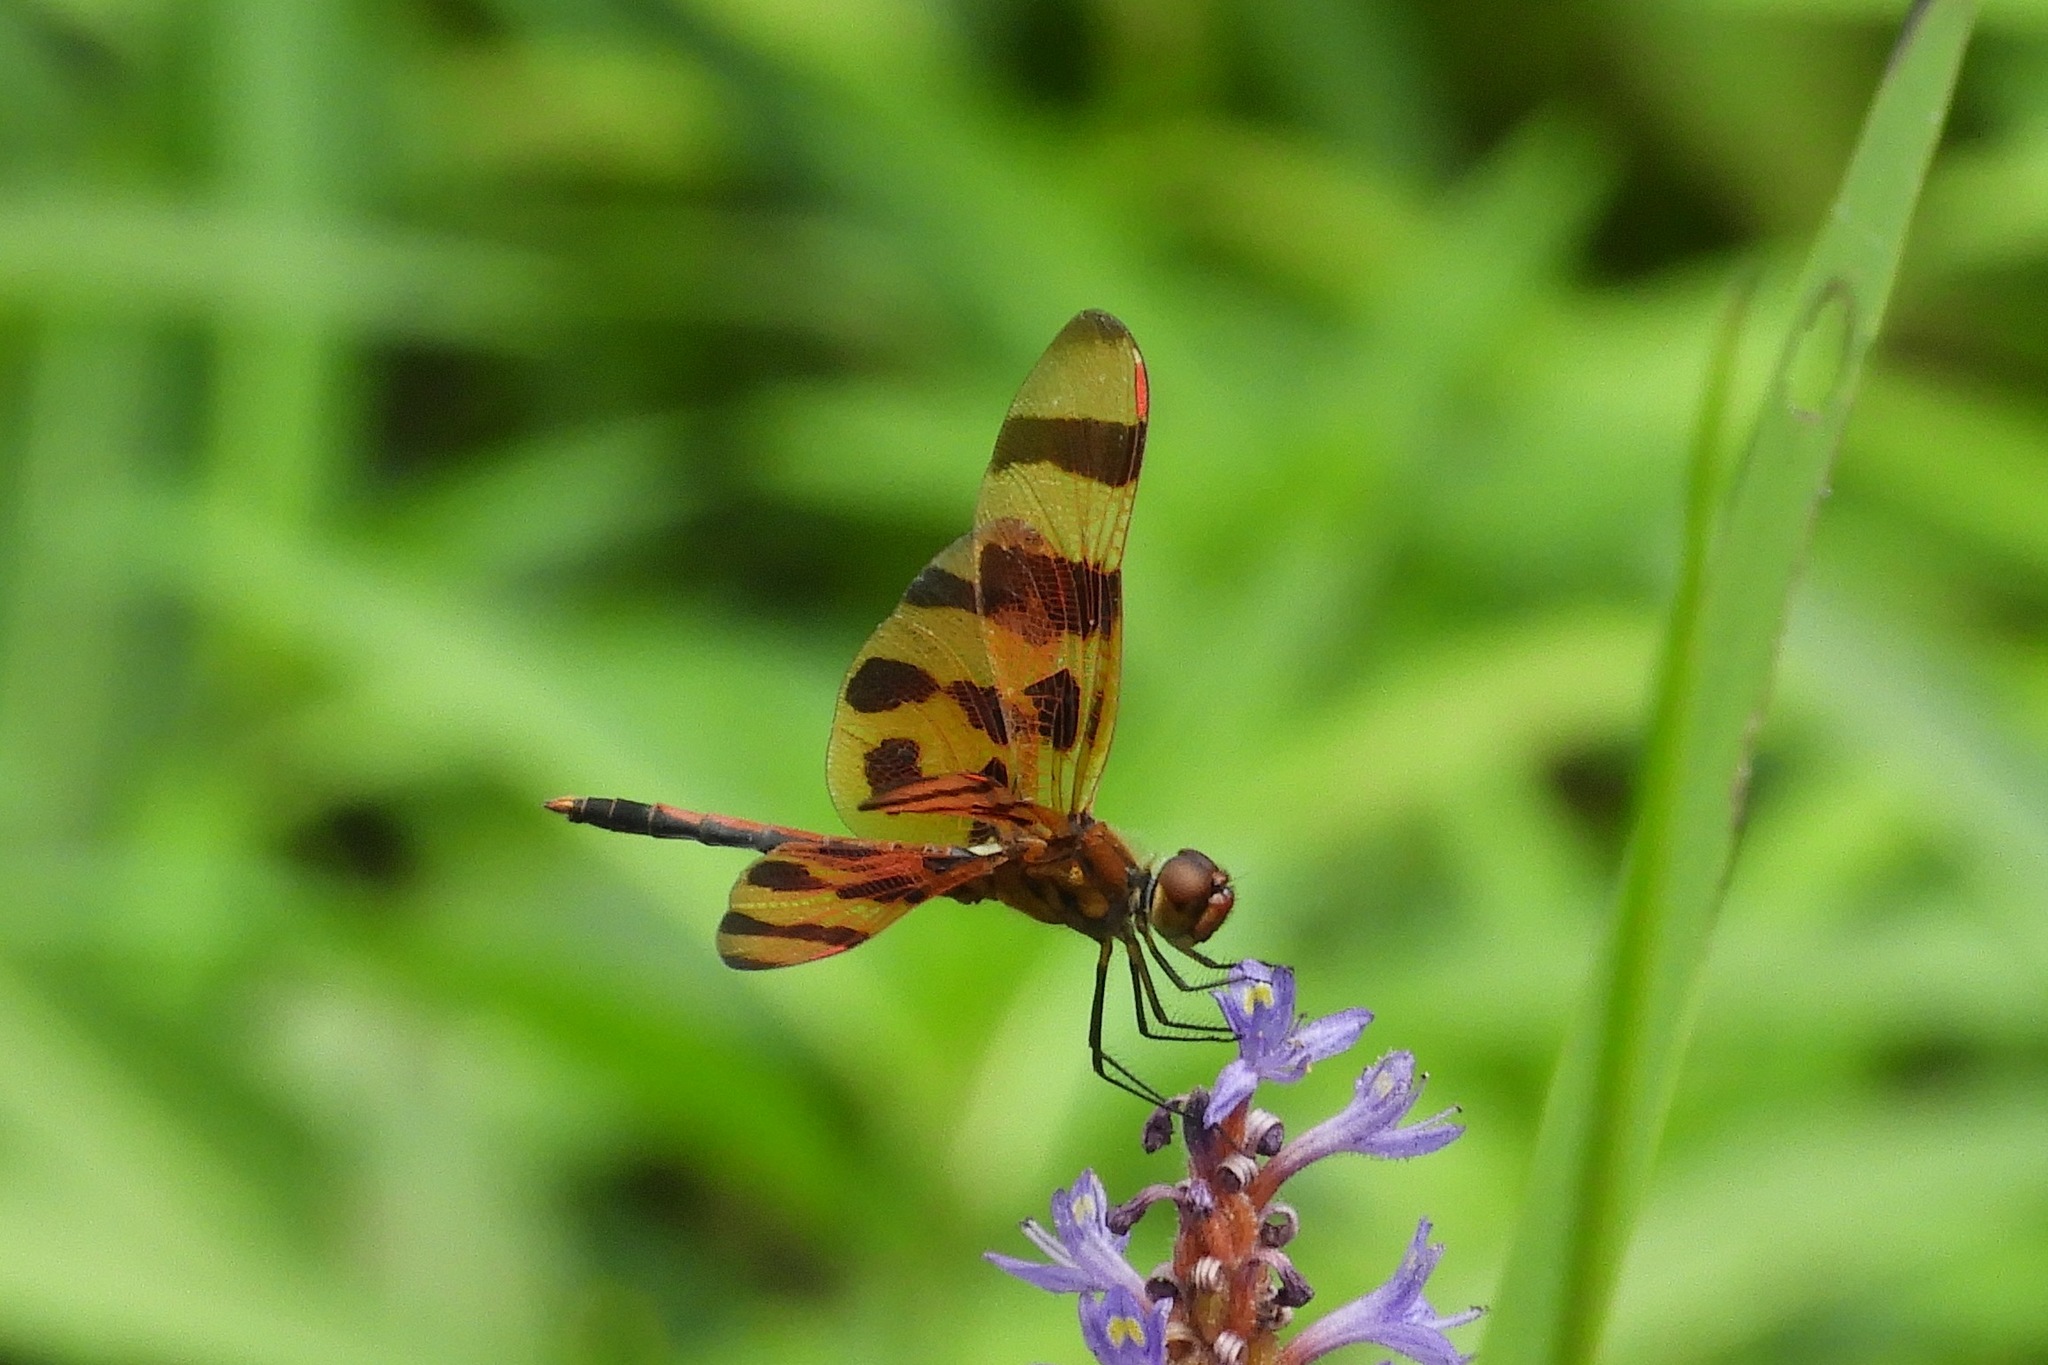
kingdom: Animalia
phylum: Arthropoda
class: Insecta
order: Odonata
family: Libellulidae
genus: Celithemis
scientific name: Celithemis eponina
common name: Halloween pennant
